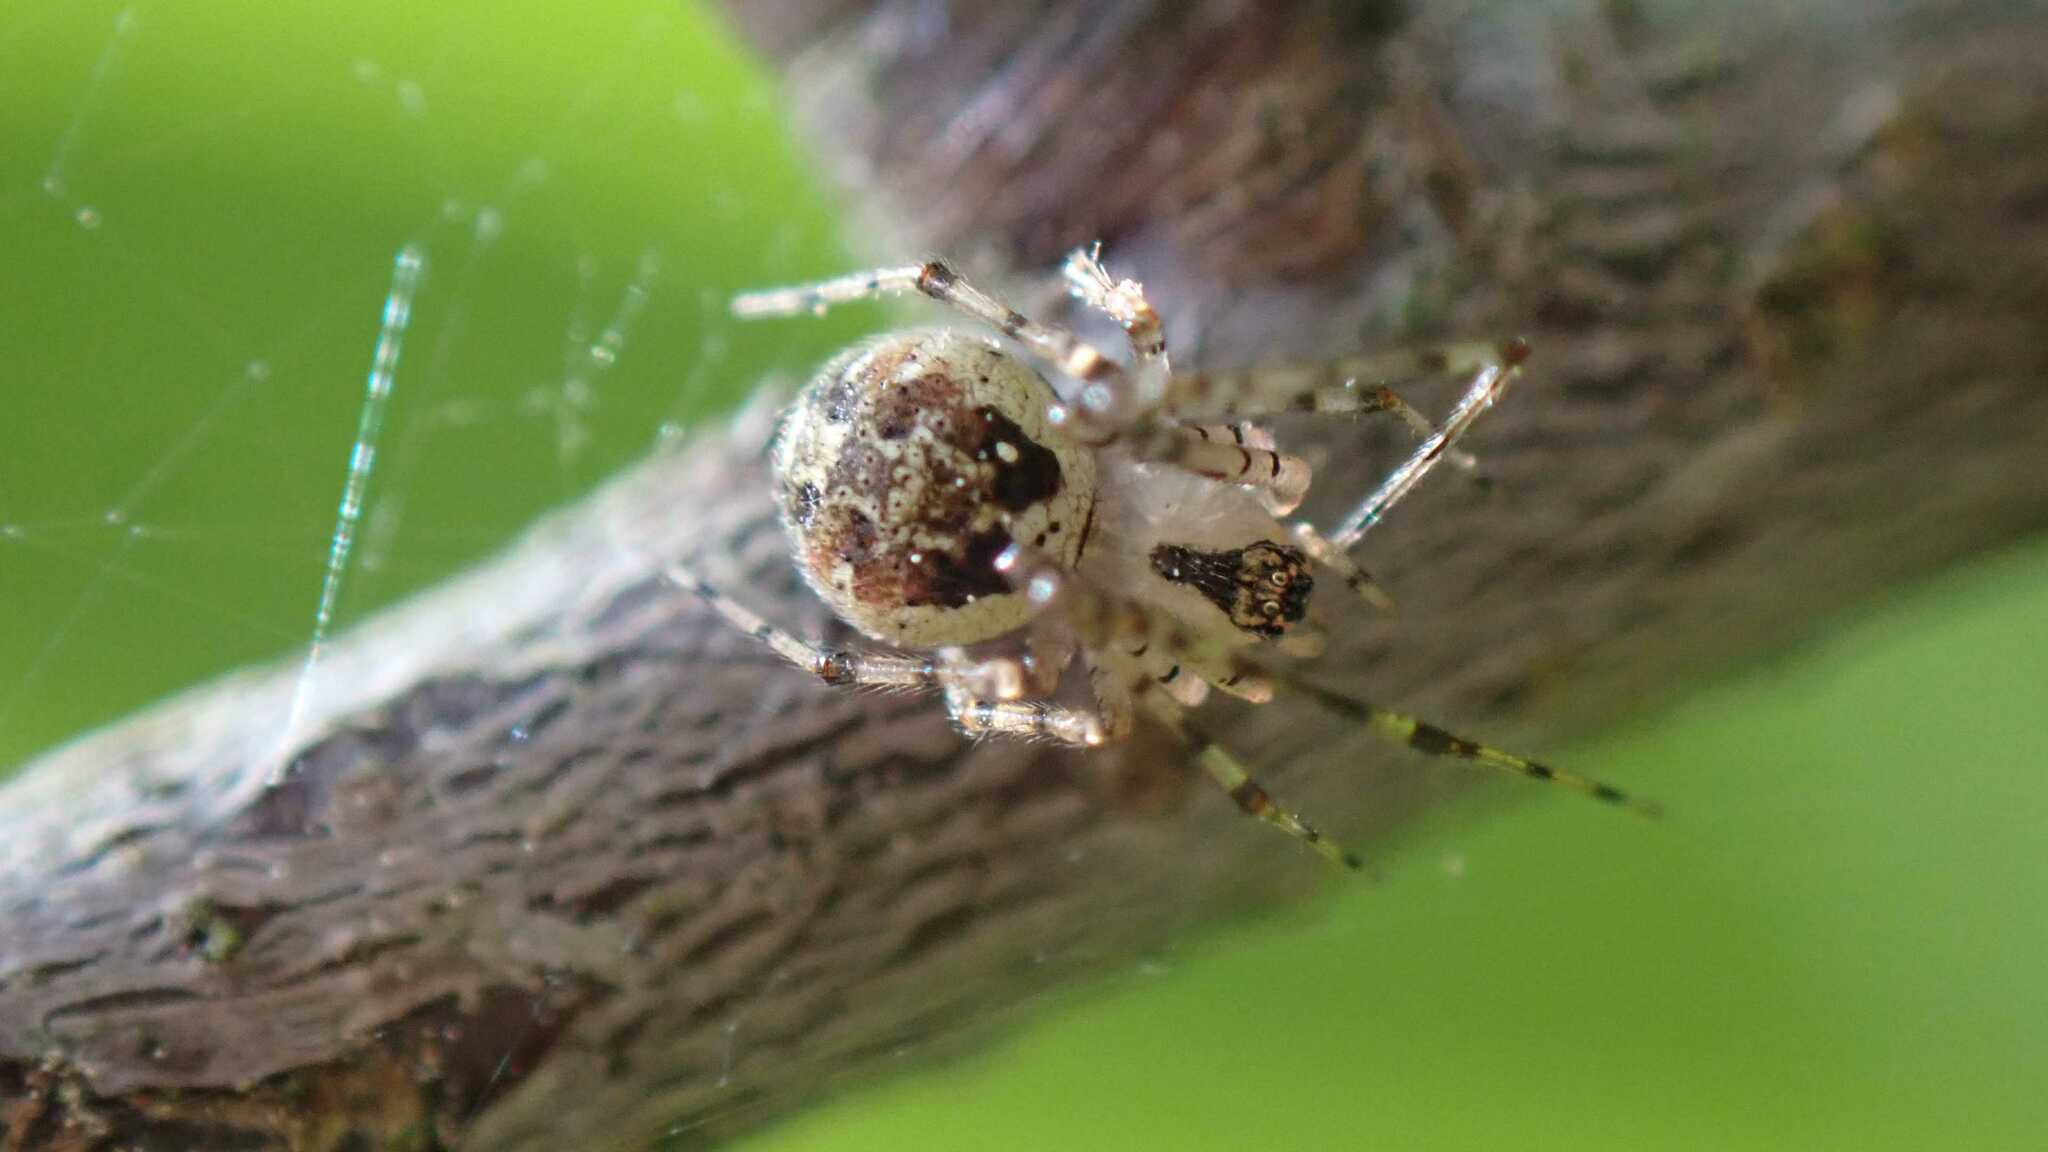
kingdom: Animalia
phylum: Arthropoda
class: Arachnida
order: Araneae
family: Theridiidae
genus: Platnickina
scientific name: Platnickina tincta
